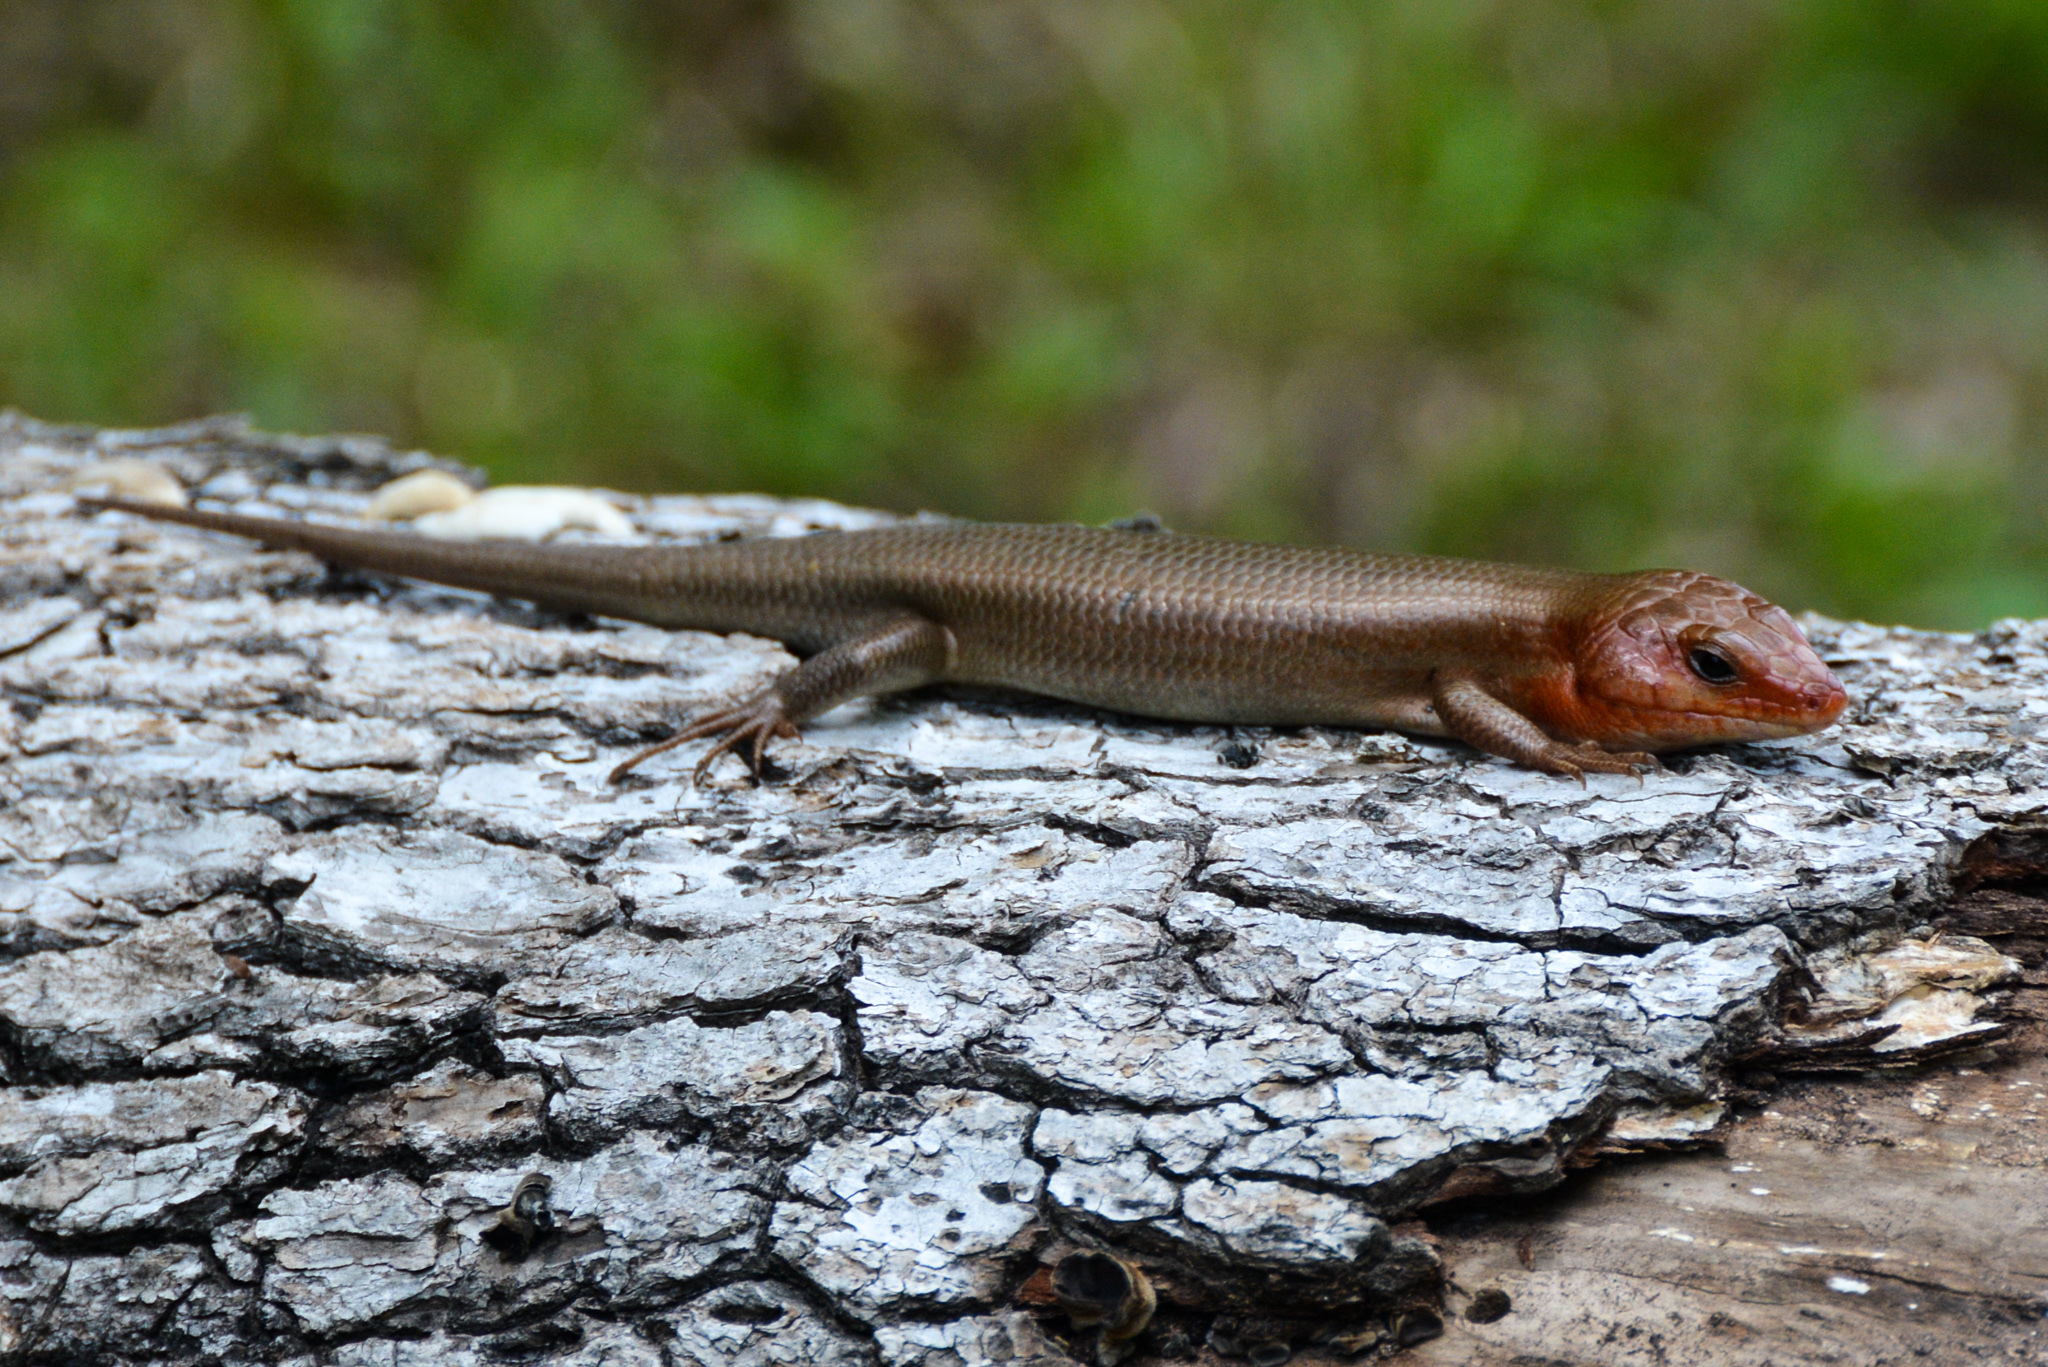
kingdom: Animalia
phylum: Chordata
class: Squamata
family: Scincidae
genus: Plestiodon
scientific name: Plestiodon laticeps
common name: Broadhead skink
